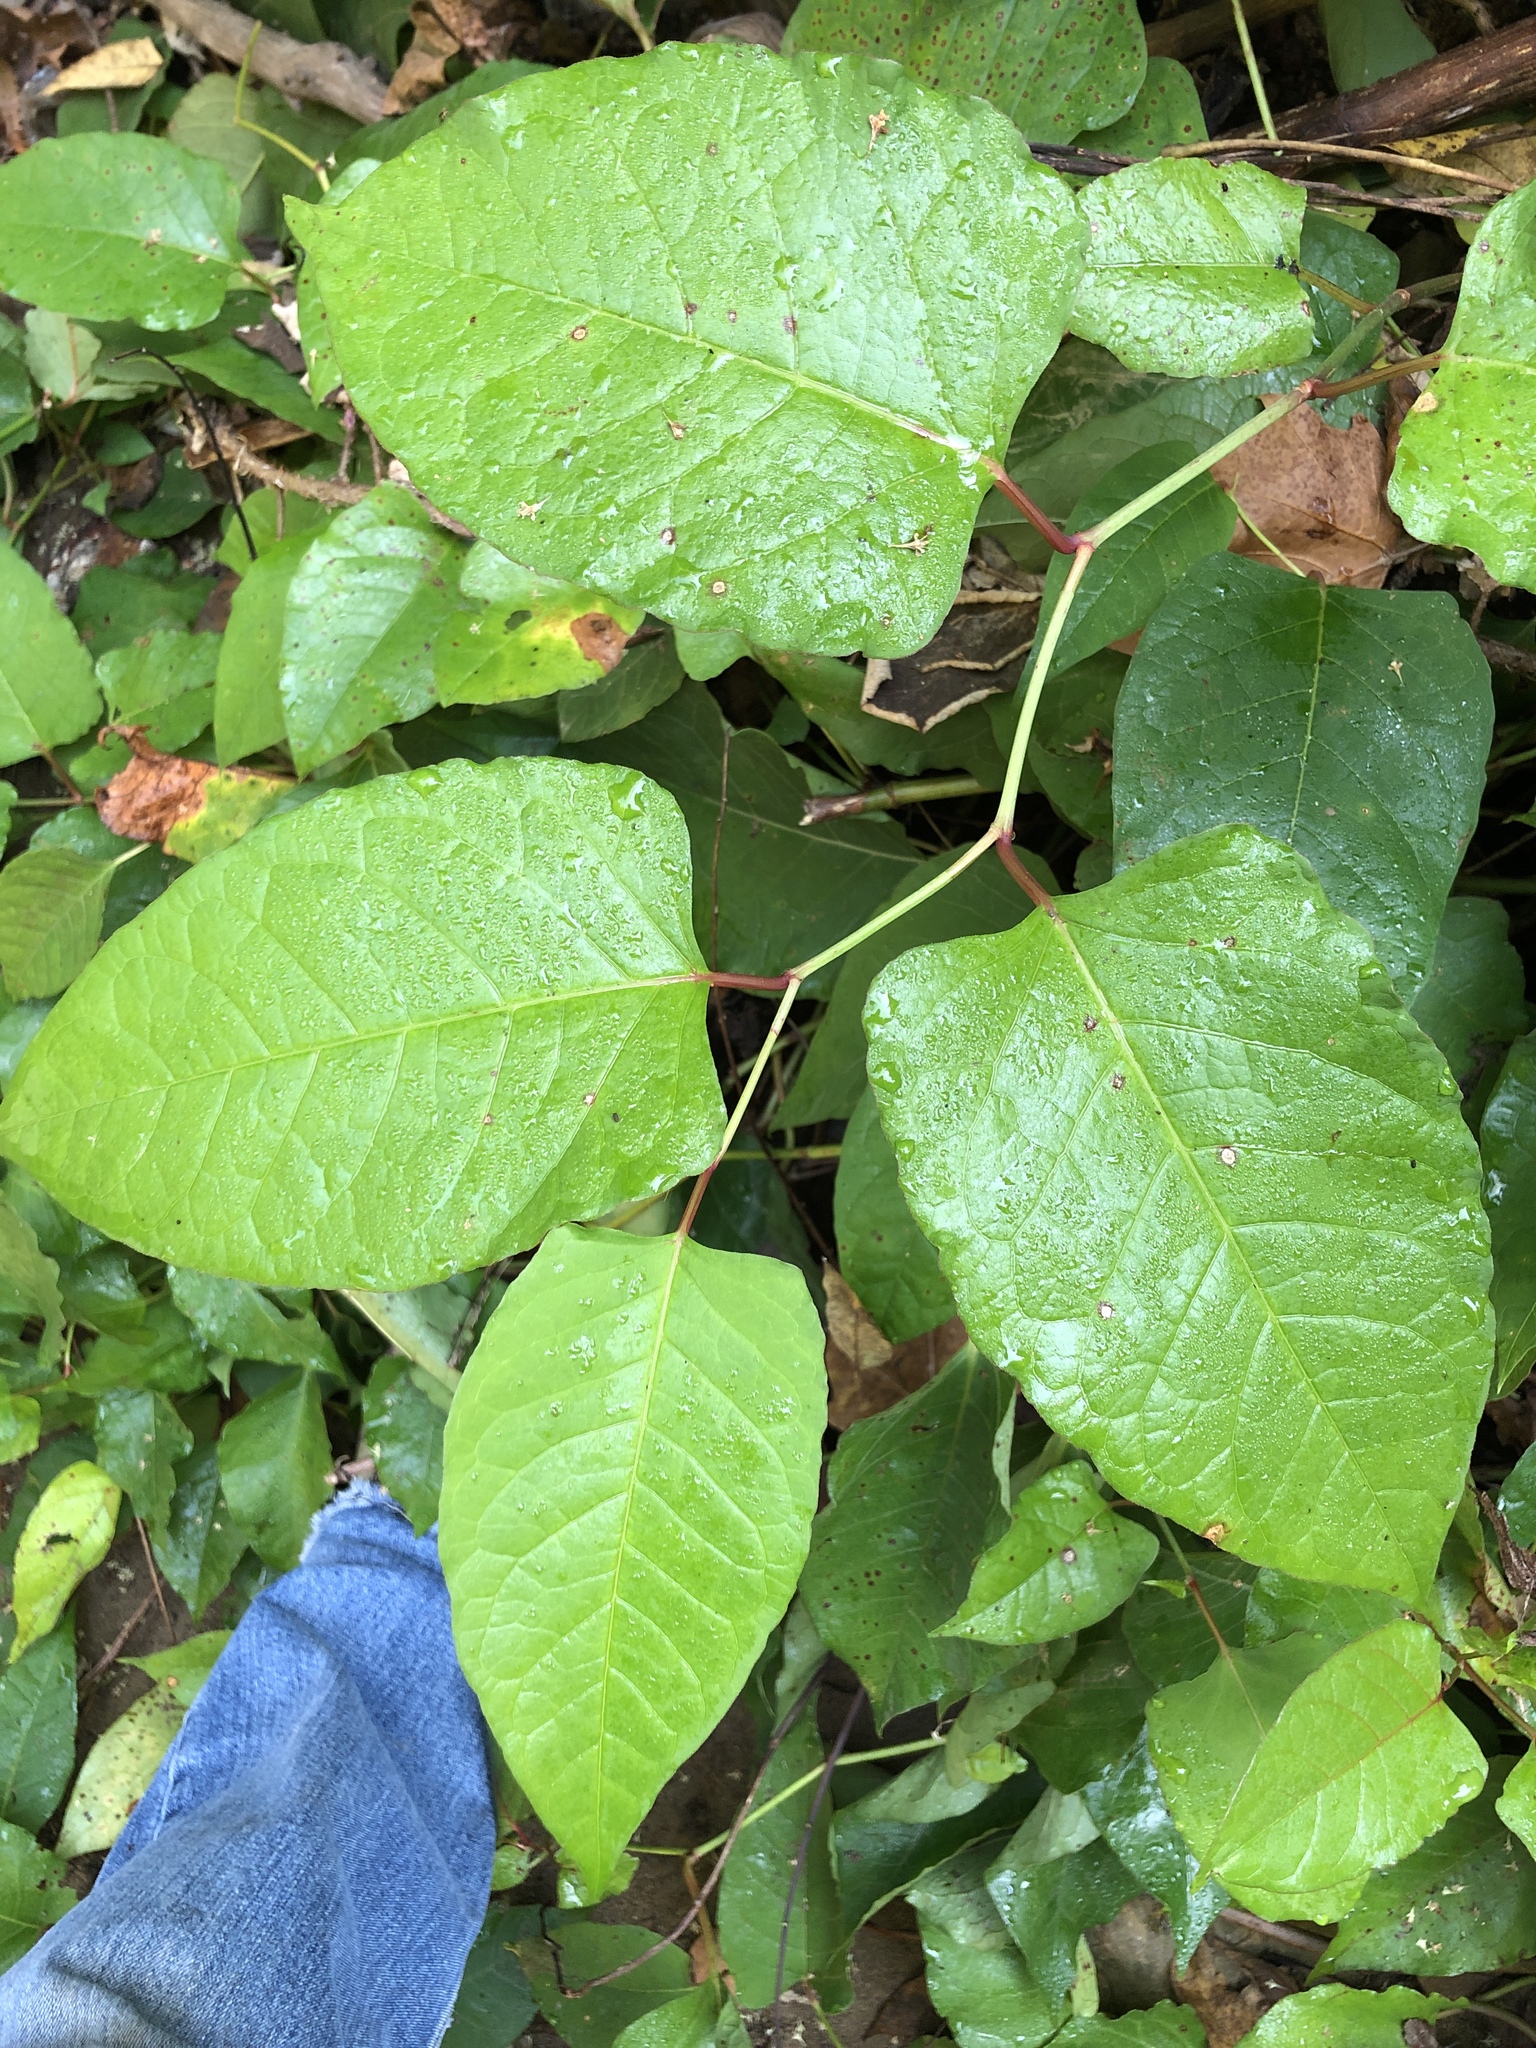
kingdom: Plantae
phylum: Tracheophyta
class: Magnoliopsida
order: Caryophyllales
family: Polygonaceae
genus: Reynoutria
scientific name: Reynoutria japonica
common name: Japanese knotweed
